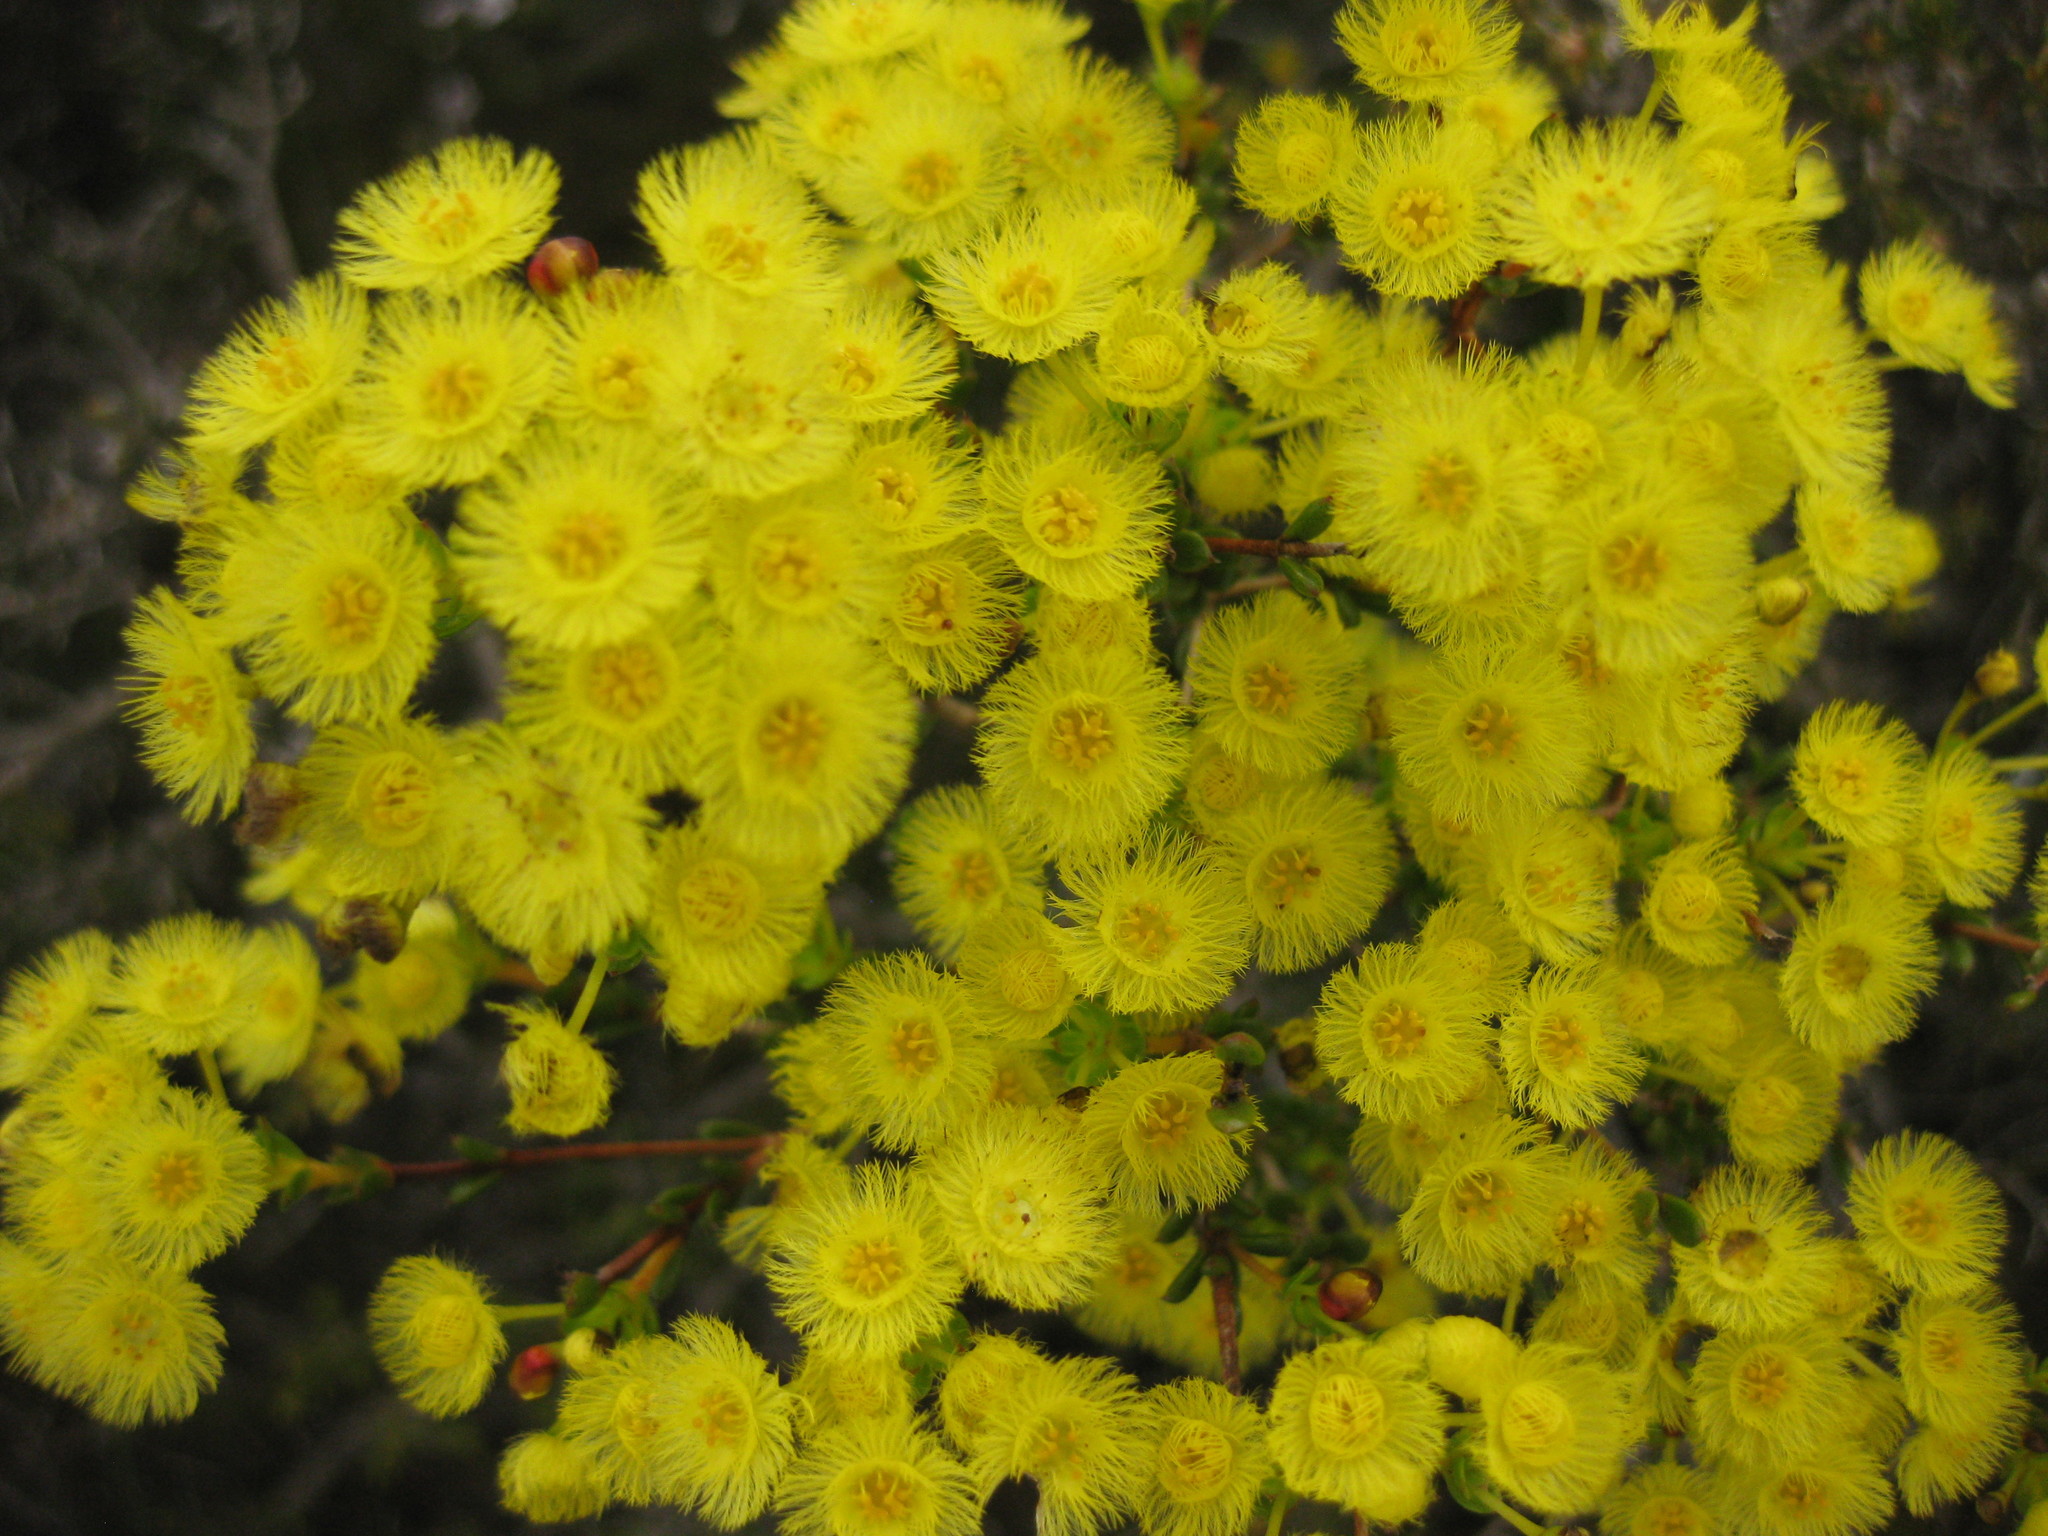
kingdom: Plantae
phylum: Tracheophyta
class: Magnoliopsida
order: Myrtales
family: Myrtaceae
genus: Verticordia
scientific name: Verticordia subulata
